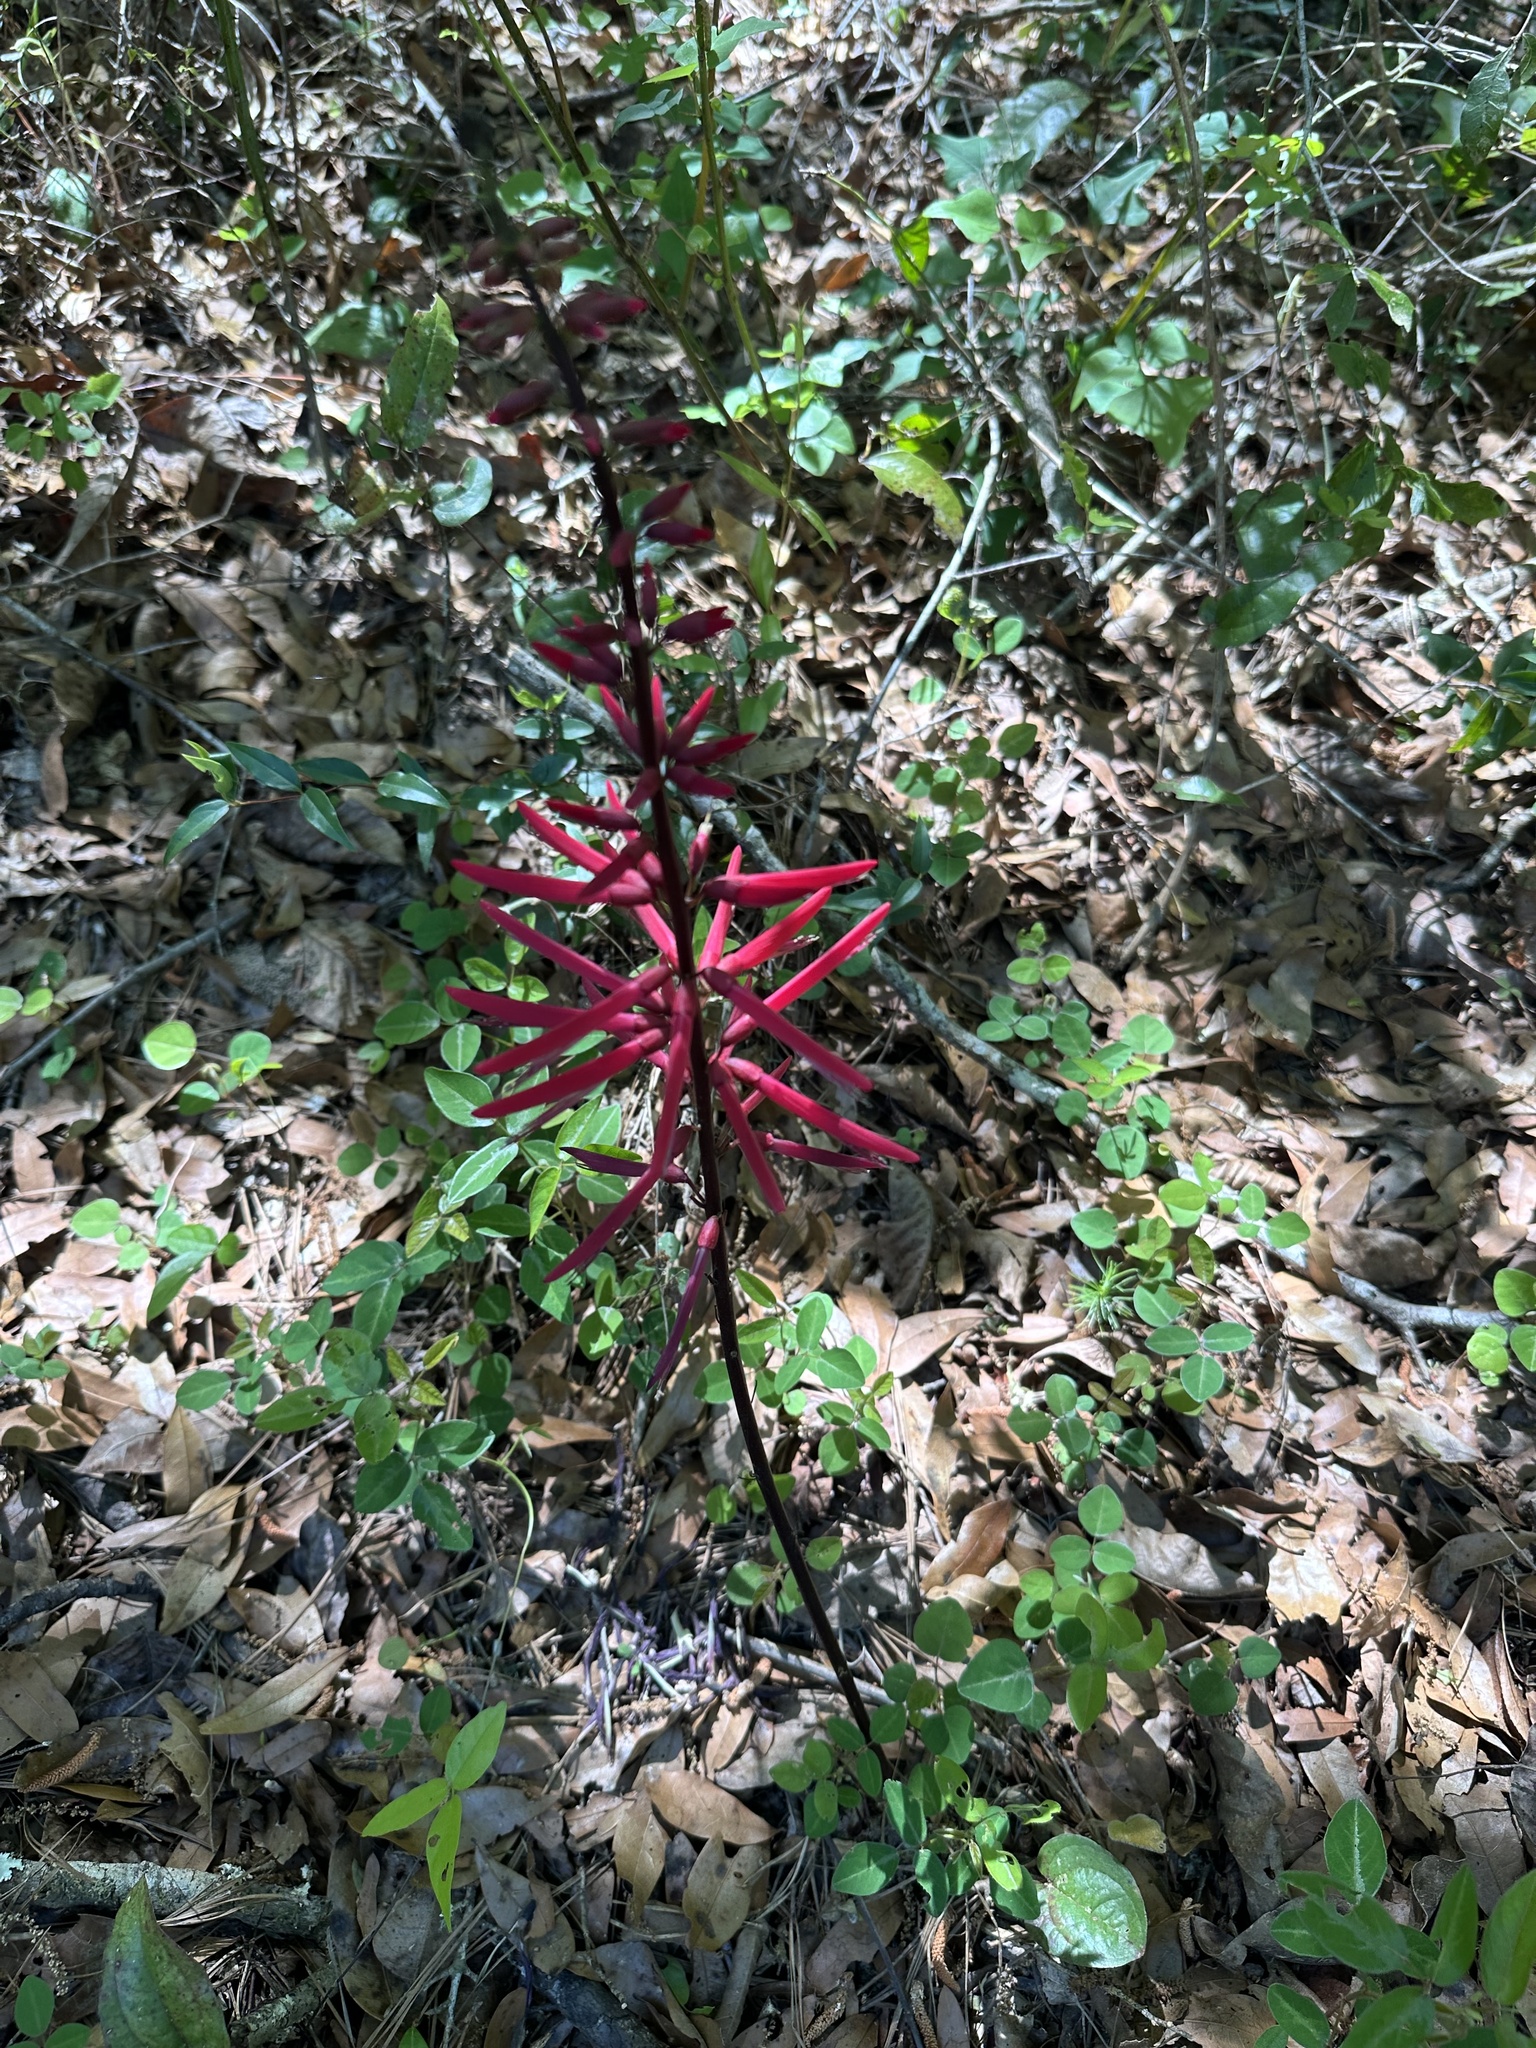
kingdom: Plantae
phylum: Tracheophyta
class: Magnoliopsida
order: Fabales
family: Fabaceae
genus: Erythrina
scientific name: Erythrina herbacea
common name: Coral-bean
